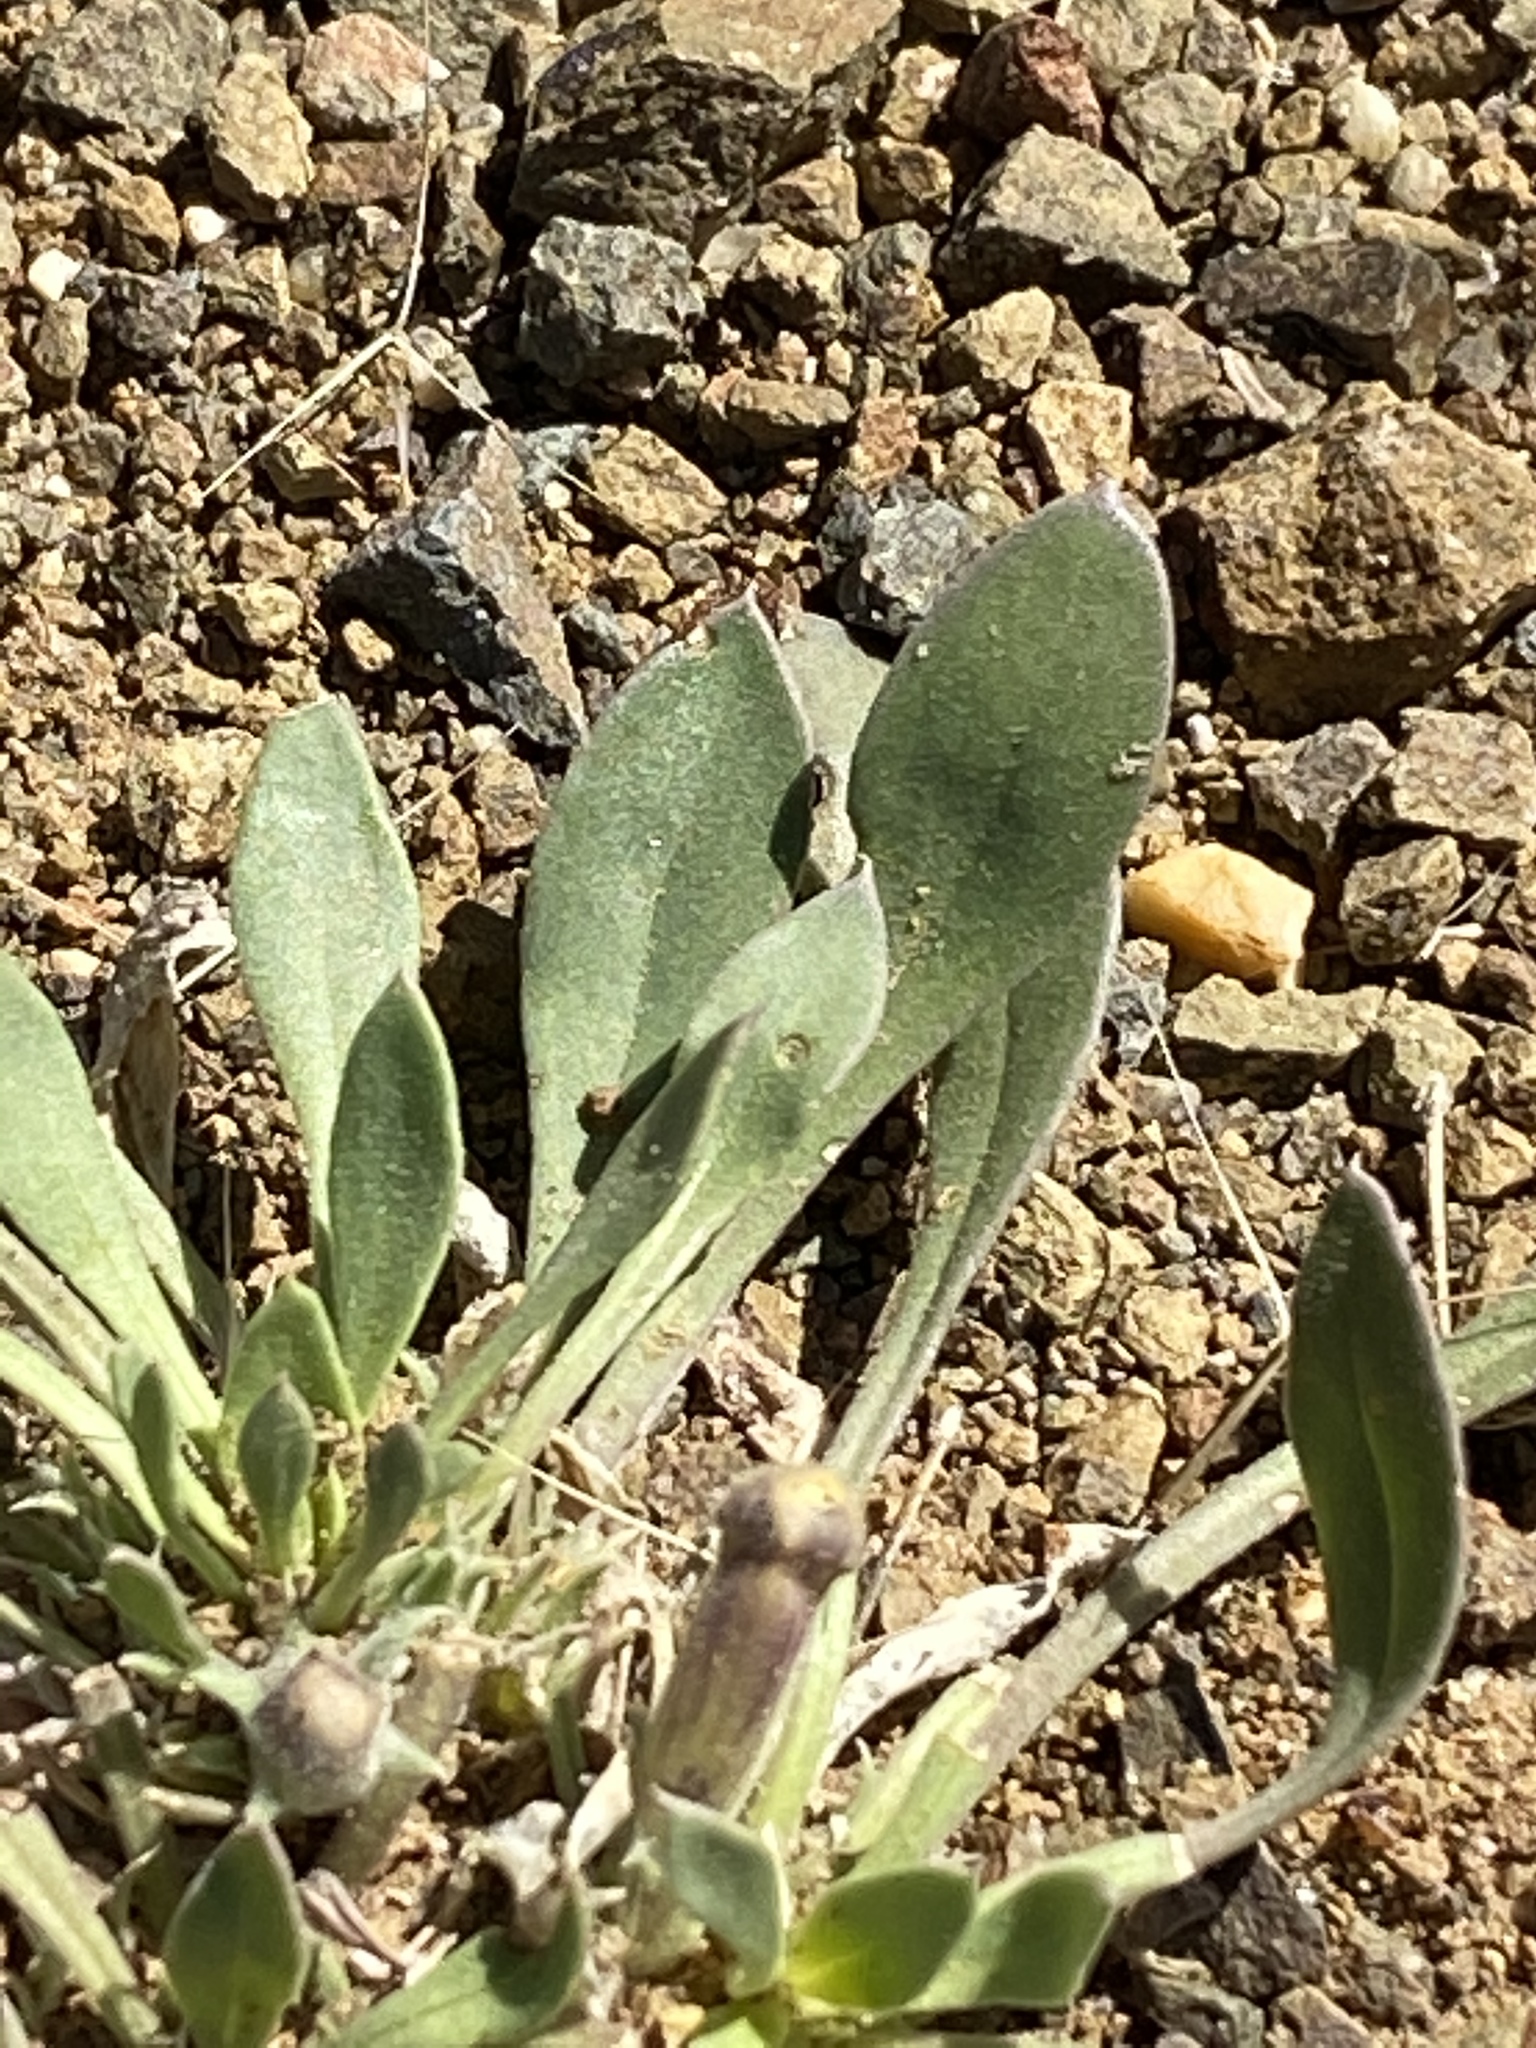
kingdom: Plantae
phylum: Tracheophyta
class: Magnoliopsida
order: Lamiales
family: Scrophulariaceae
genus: Aptosimum
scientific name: Aptosimum indivisum
